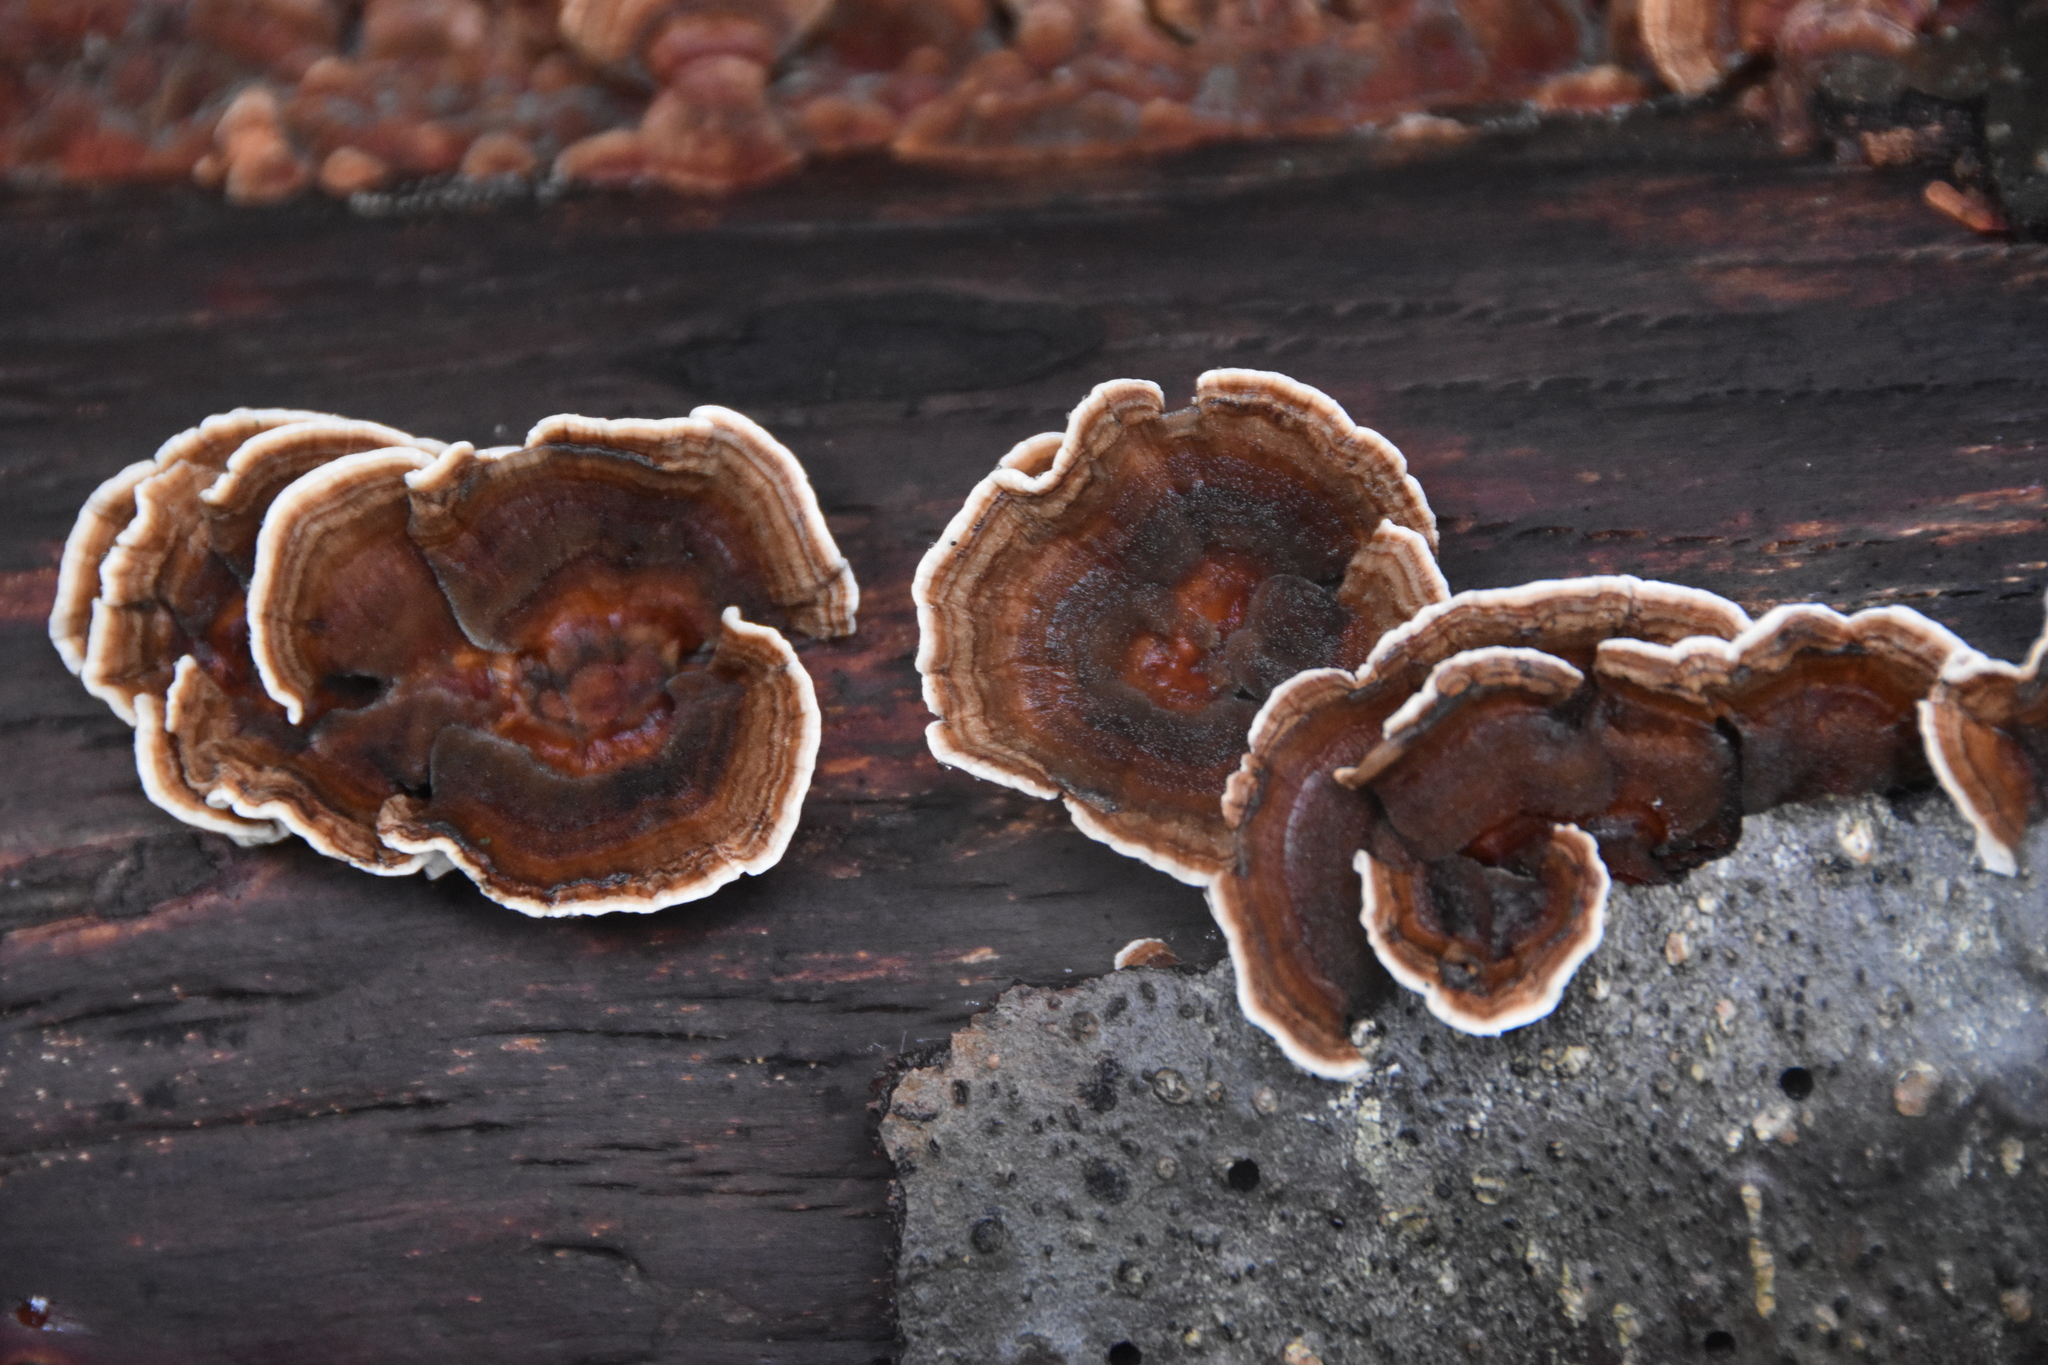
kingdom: Fungi
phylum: Basidiomycota
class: Agaricomycetes
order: Polyporales
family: Polyporaceae
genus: Trametes
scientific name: Trametes versicolor
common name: Turkeytail
